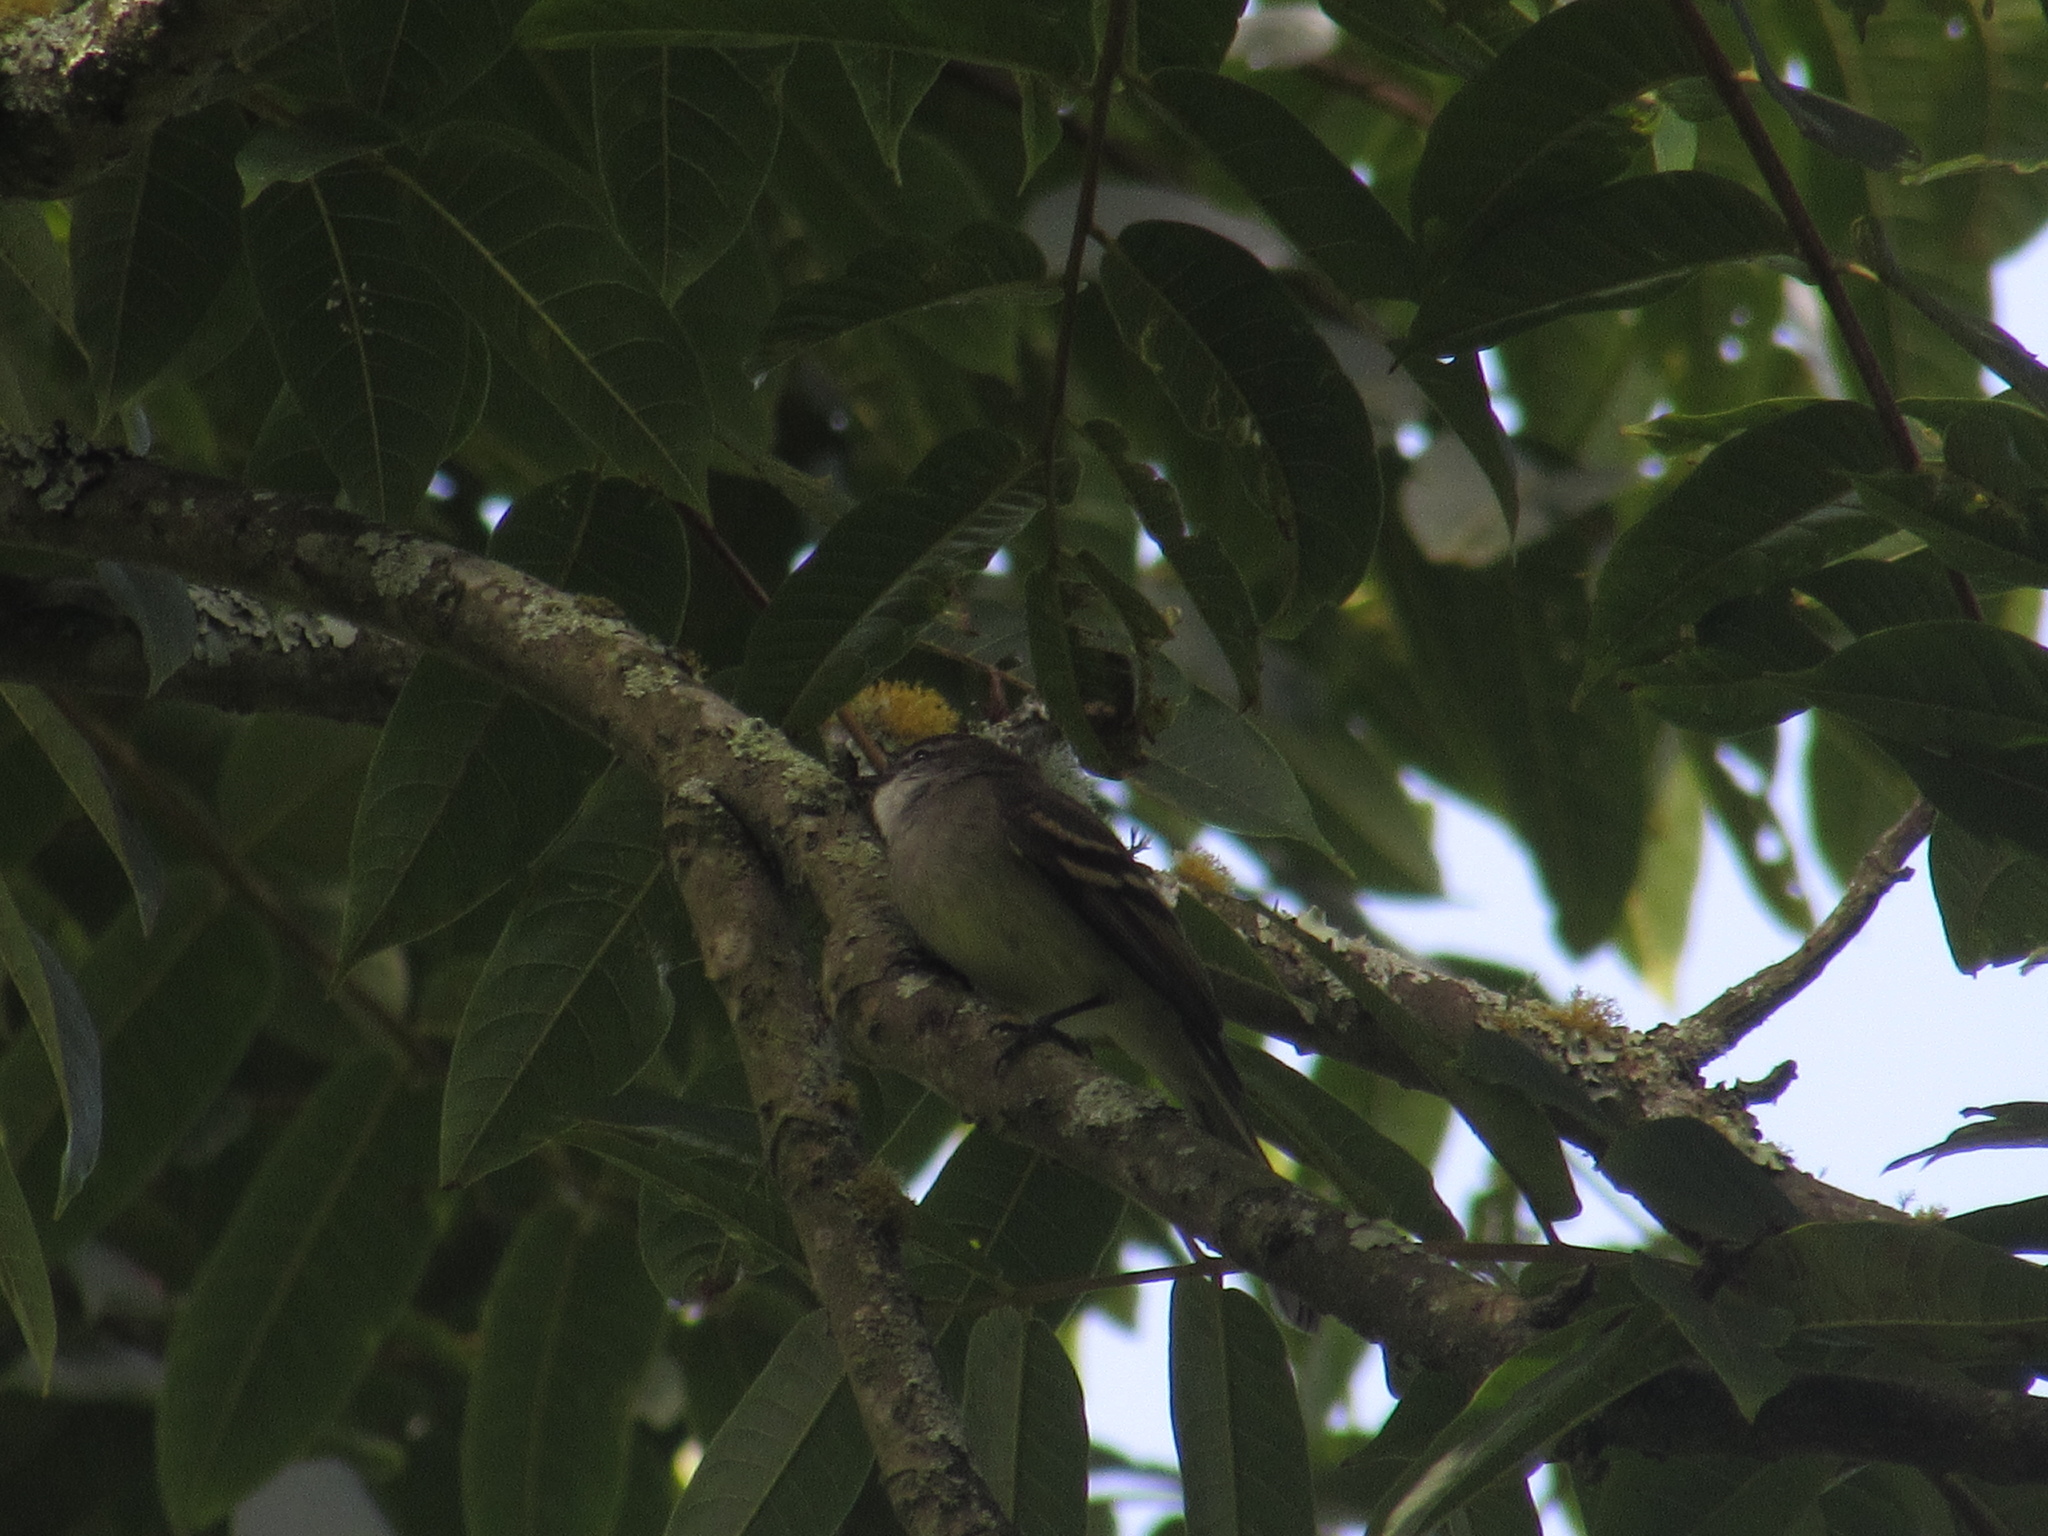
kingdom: Animalia
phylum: Chordata
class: Aves
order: Passeriformes
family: Tyrannidae
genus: Mecocerculus
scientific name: Mecocerculus leucophrys
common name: White-throated tyrannulet
